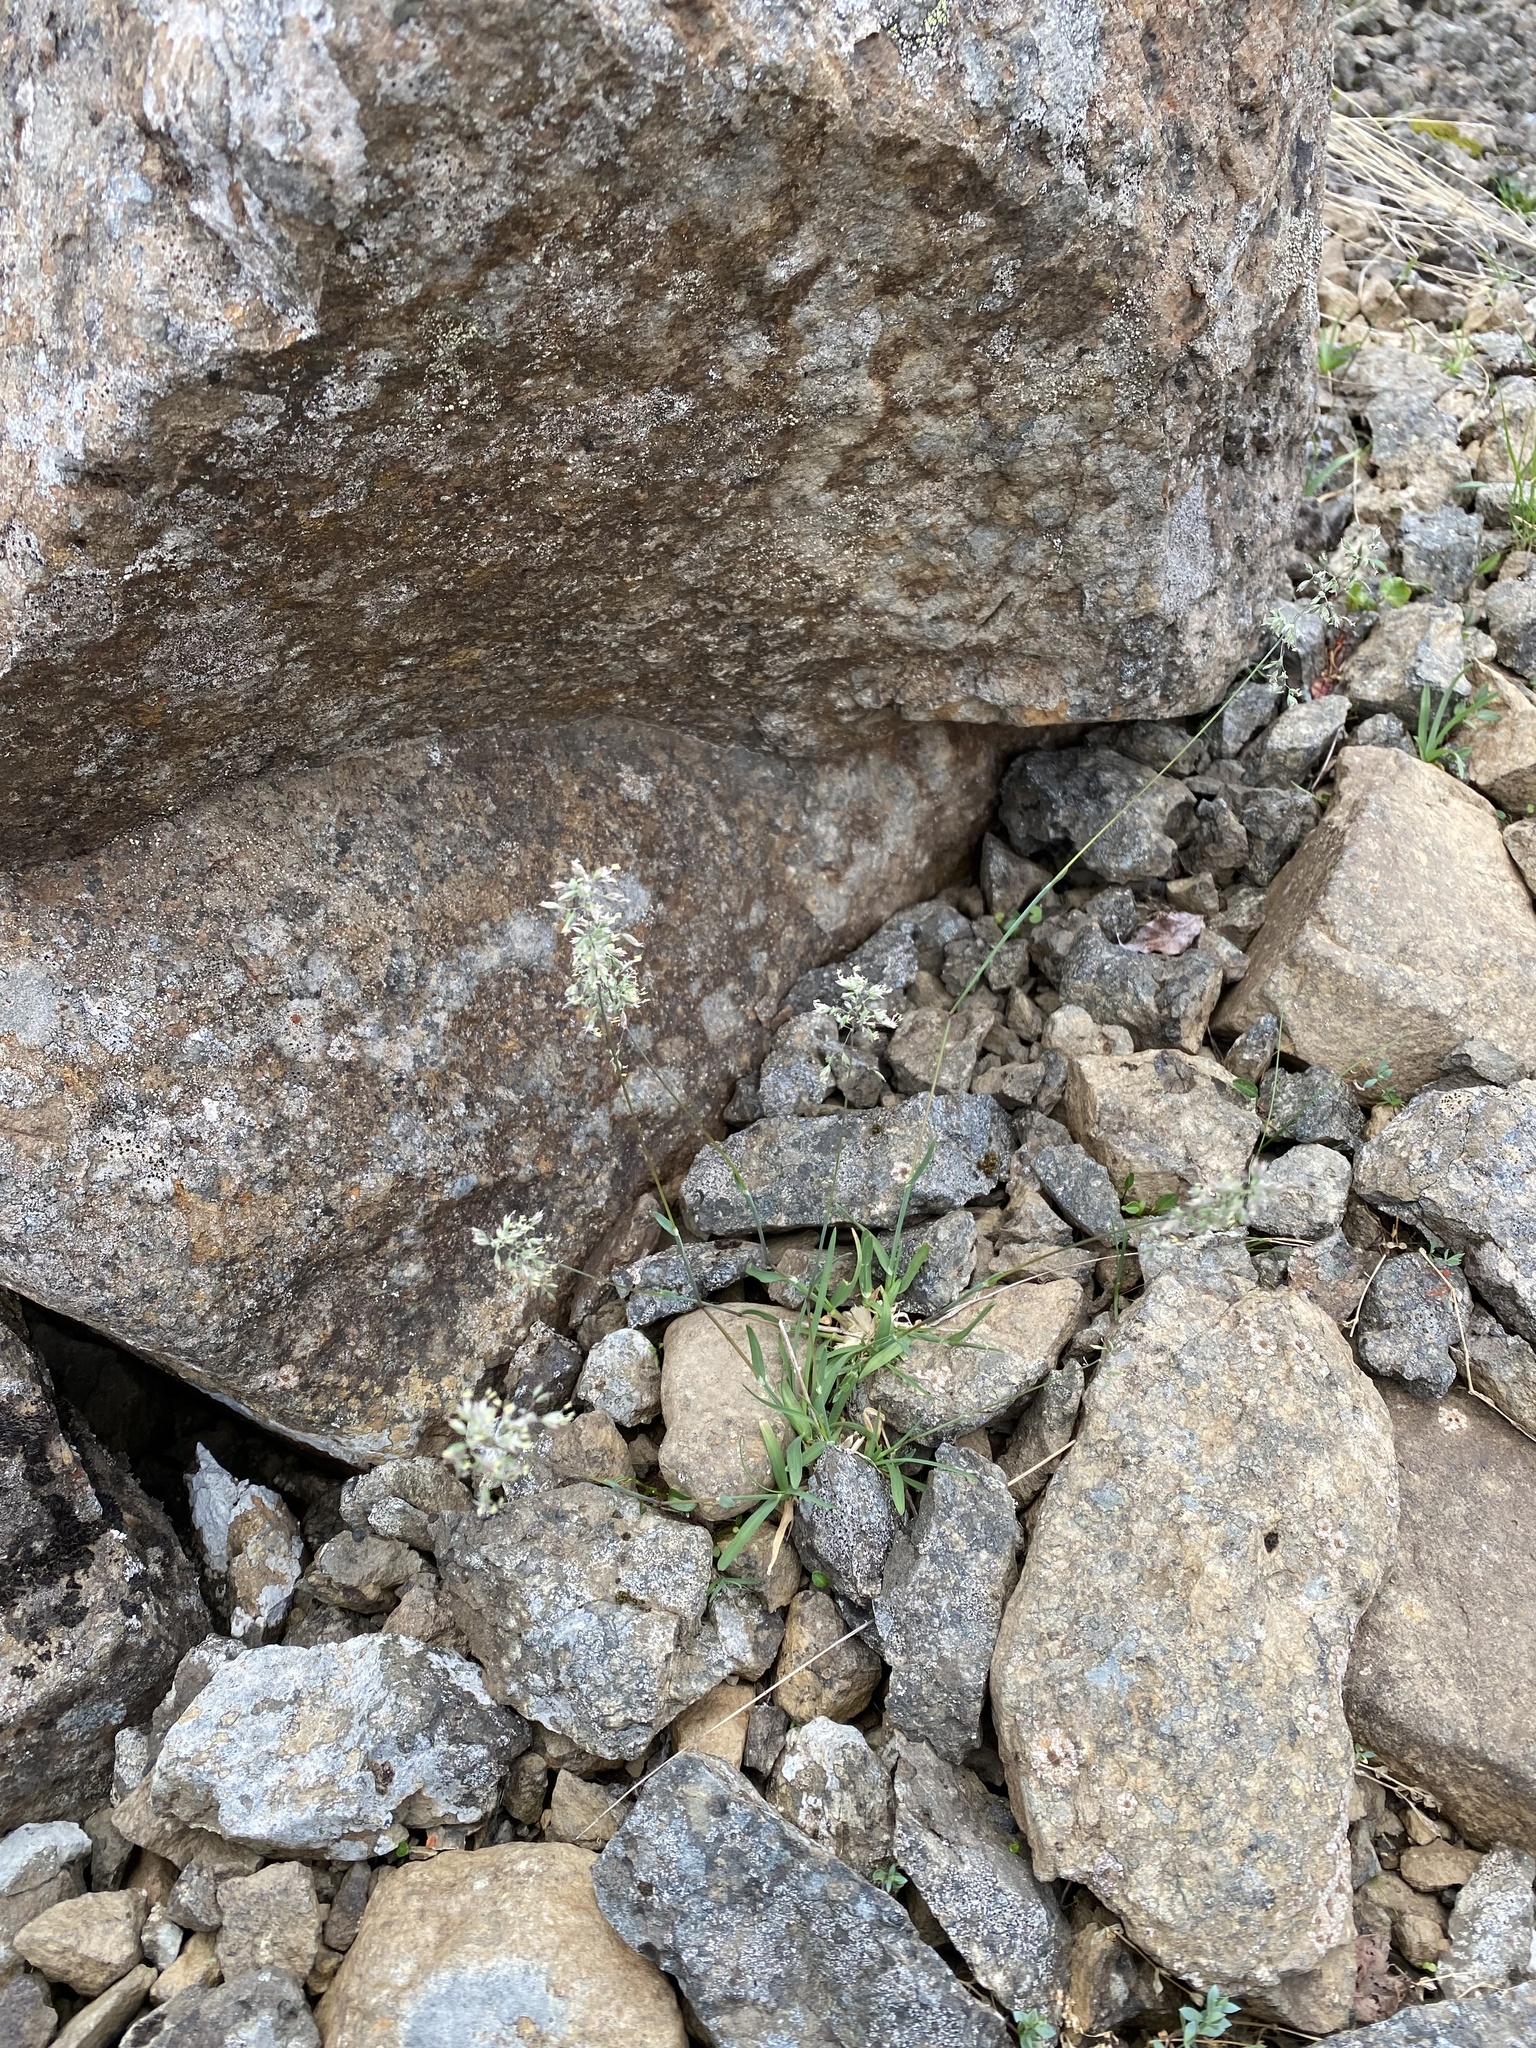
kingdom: Plantae
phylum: Tracheophyta
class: Liliopsida
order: Poales
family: Poaceae
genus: Poa
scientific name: Poa alpina
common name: Alpine bluegrass
